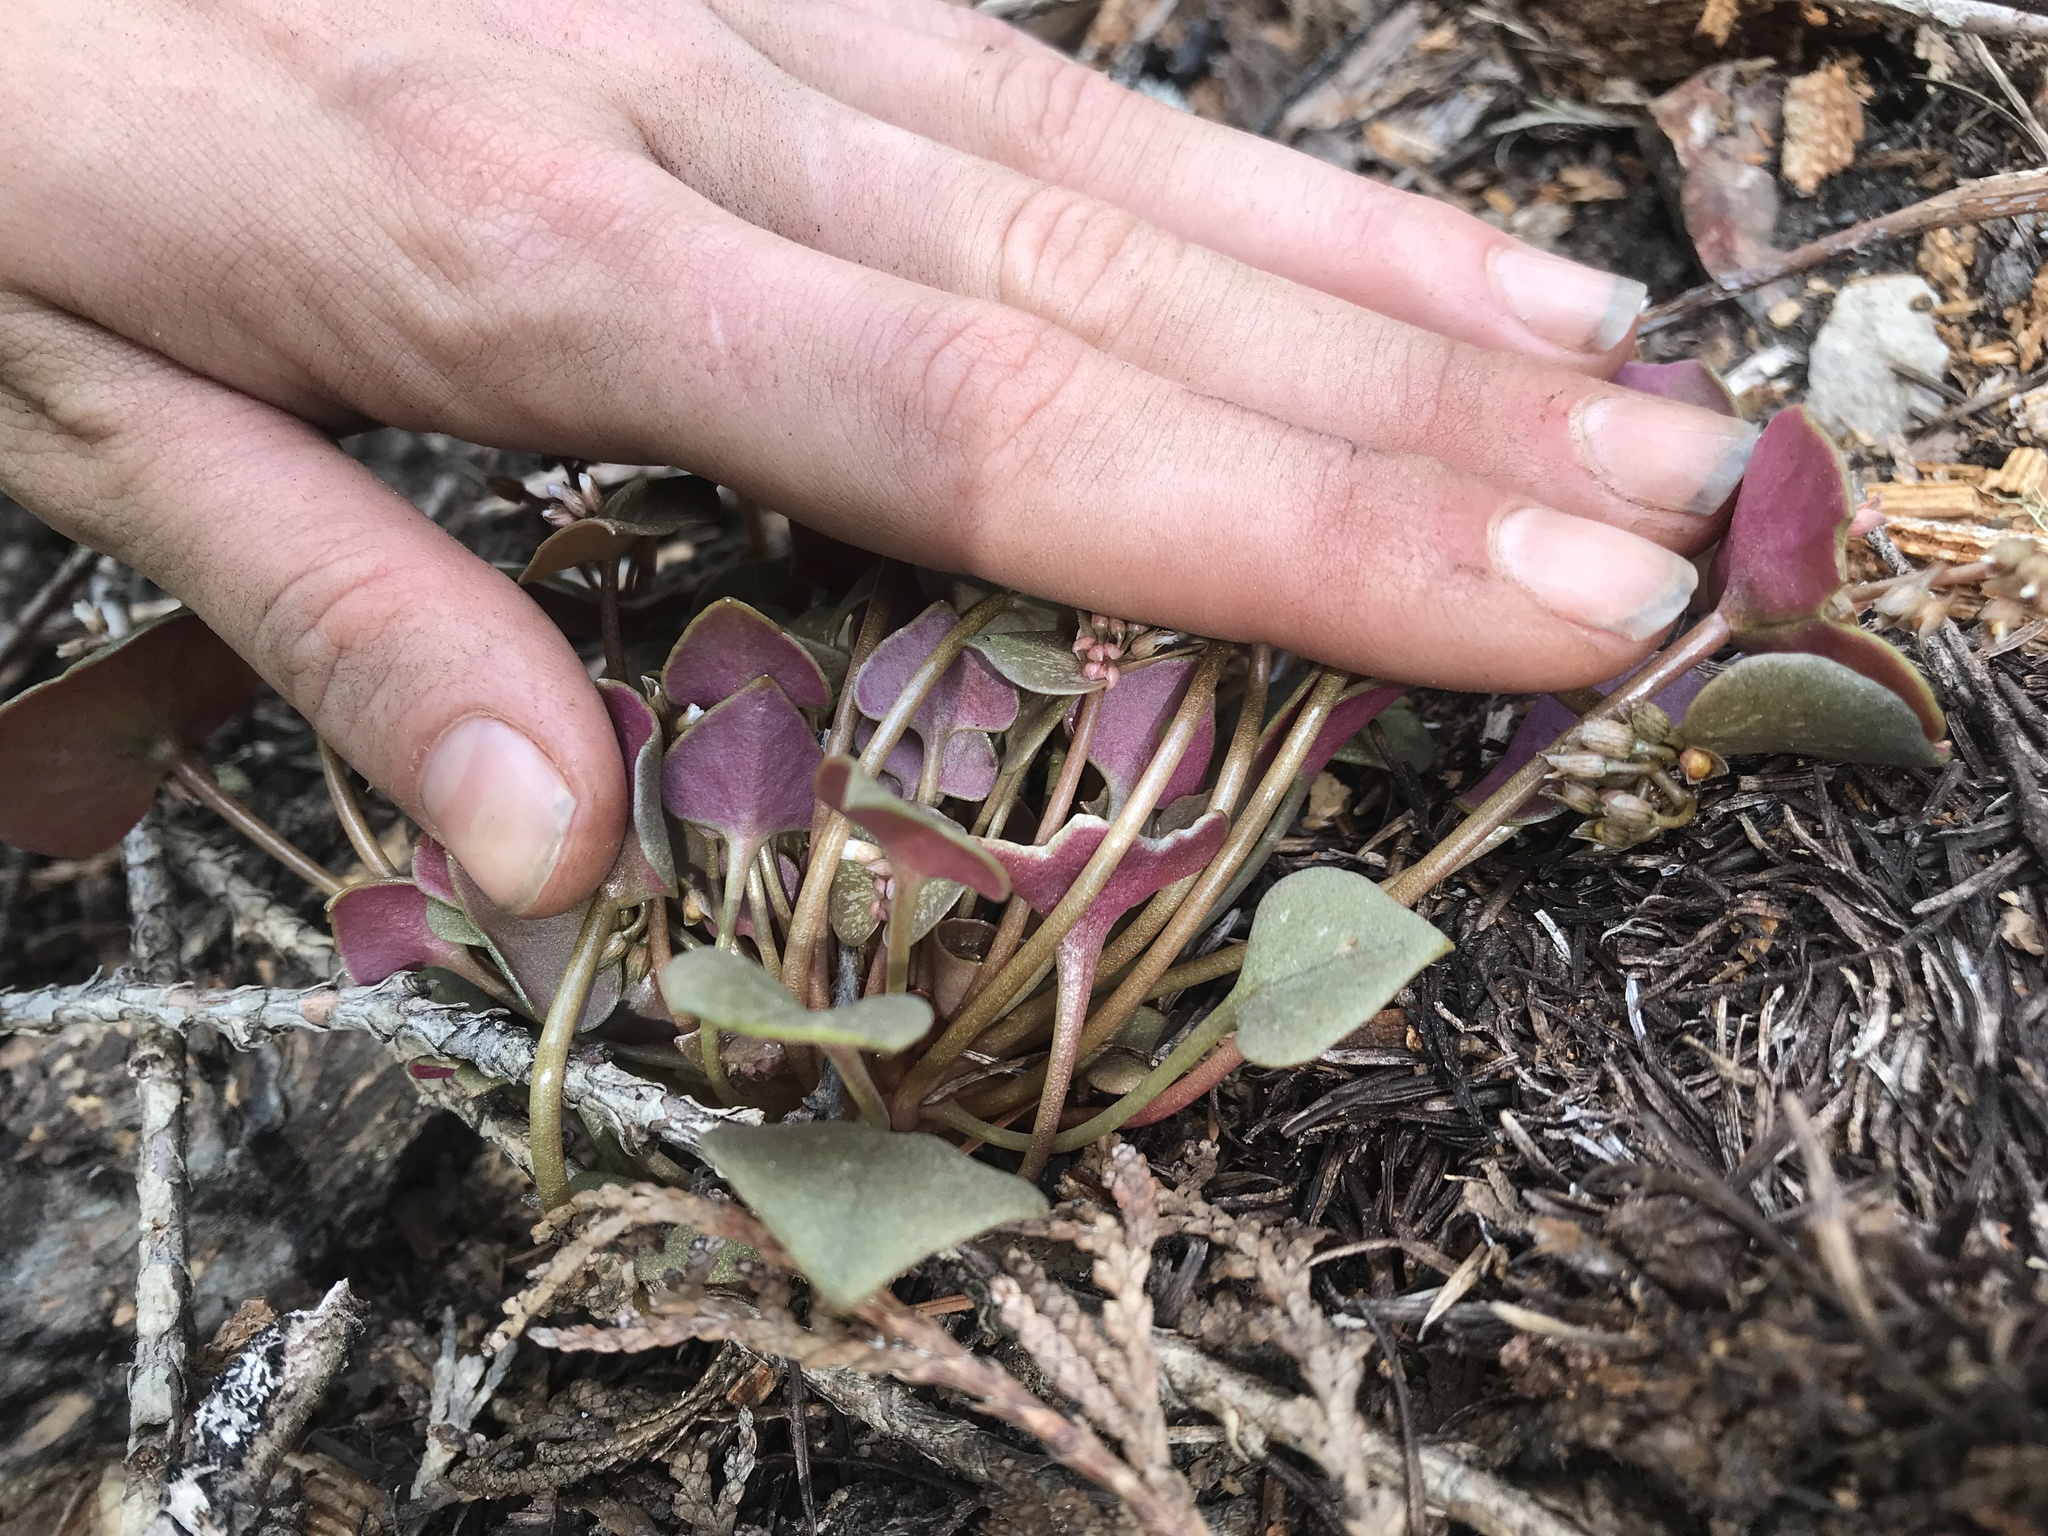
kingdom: Plantae
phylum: Tracheophyta
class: Magnoliopsida
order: Caryophyllales
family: Montiaceae
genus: Claytonia
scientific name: Claytonia rubra
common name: Erubescent miner's-lettuce
